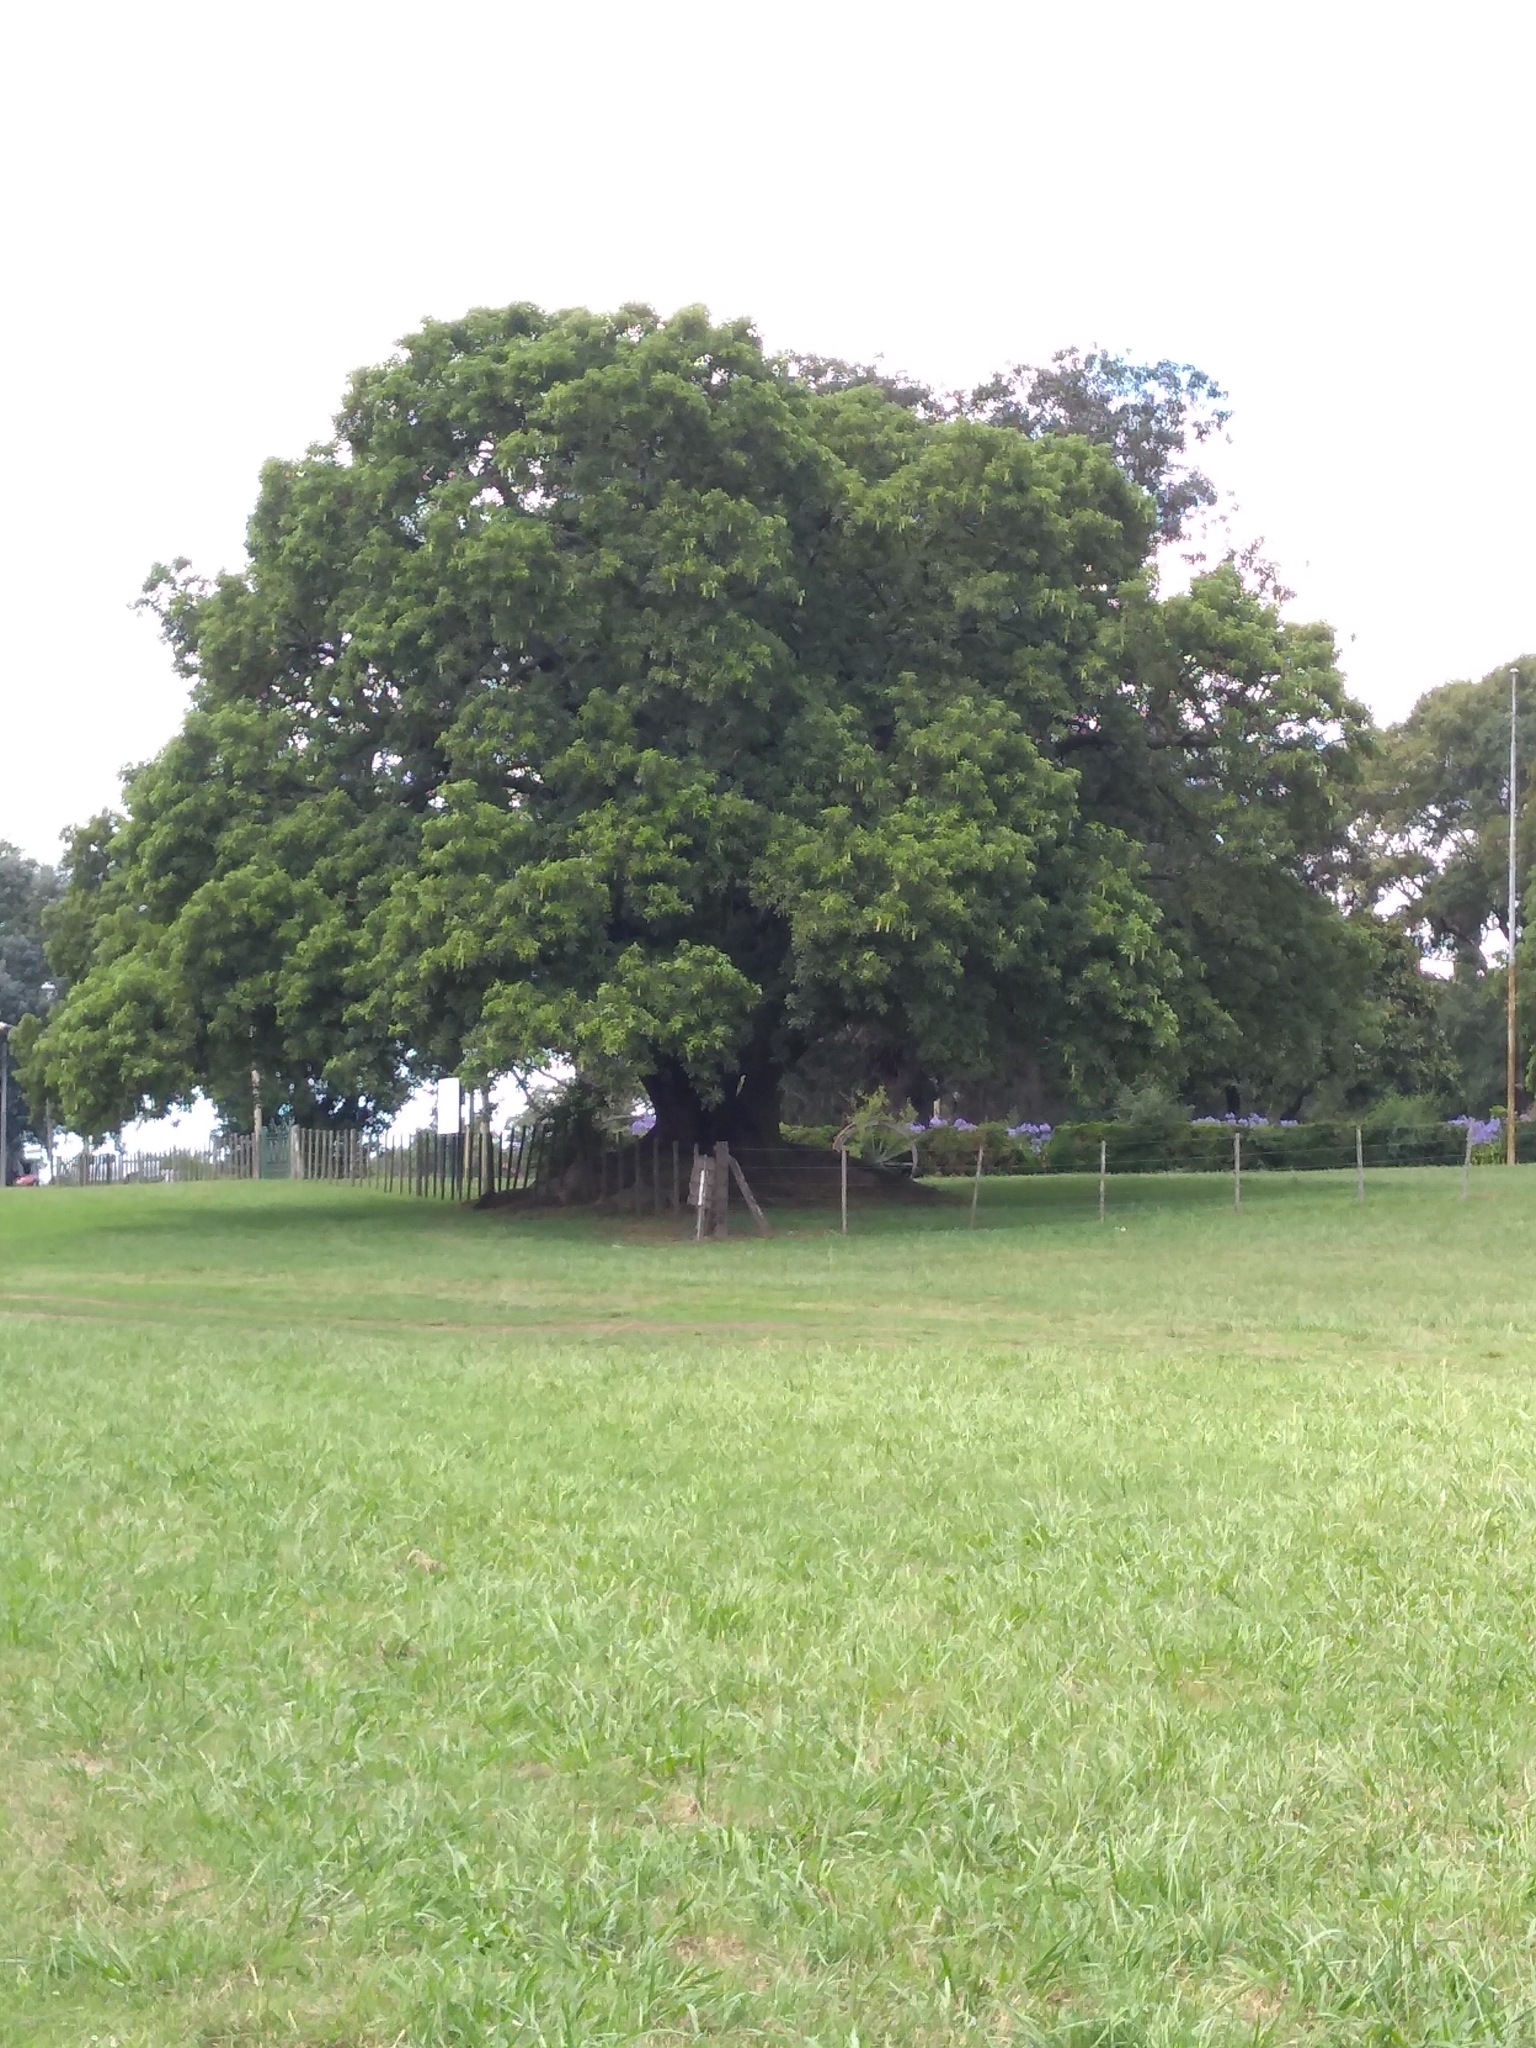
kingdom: Plantae
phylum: Tracheophyta
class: Magnoliopsida
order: Caryophyllales
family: Phytolaccaceae
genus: Phytolacca
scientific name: Phytolacca dioica
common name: Pokeweed
